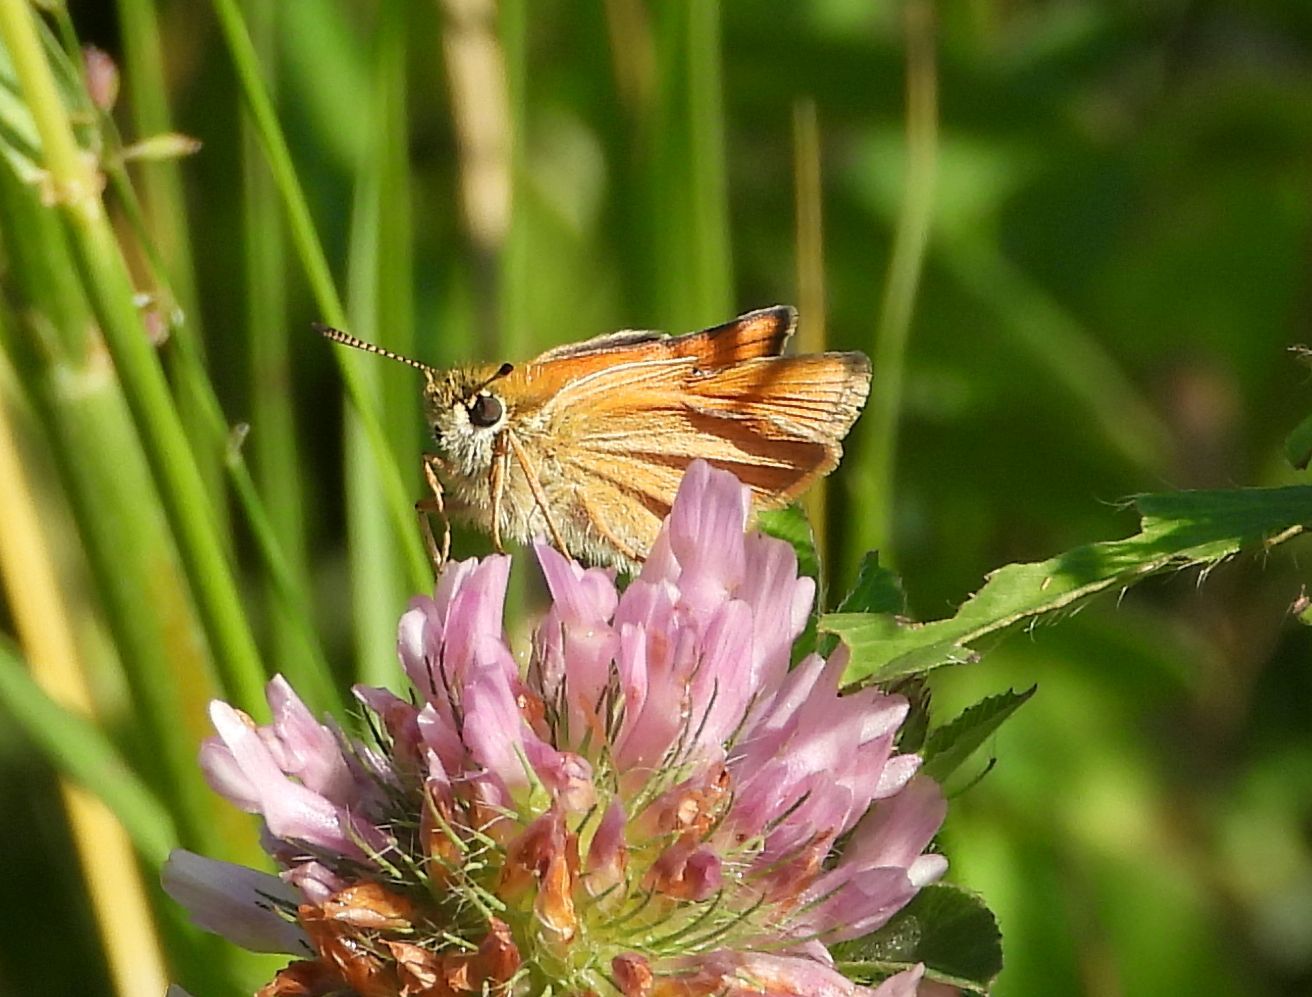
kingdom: Animalia
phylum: Arthropoda
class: Insecta
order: Lepidoptera
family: Hesperiidae
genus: Thymelicus
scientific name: Thymelicus lineola
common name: Essex skipper
